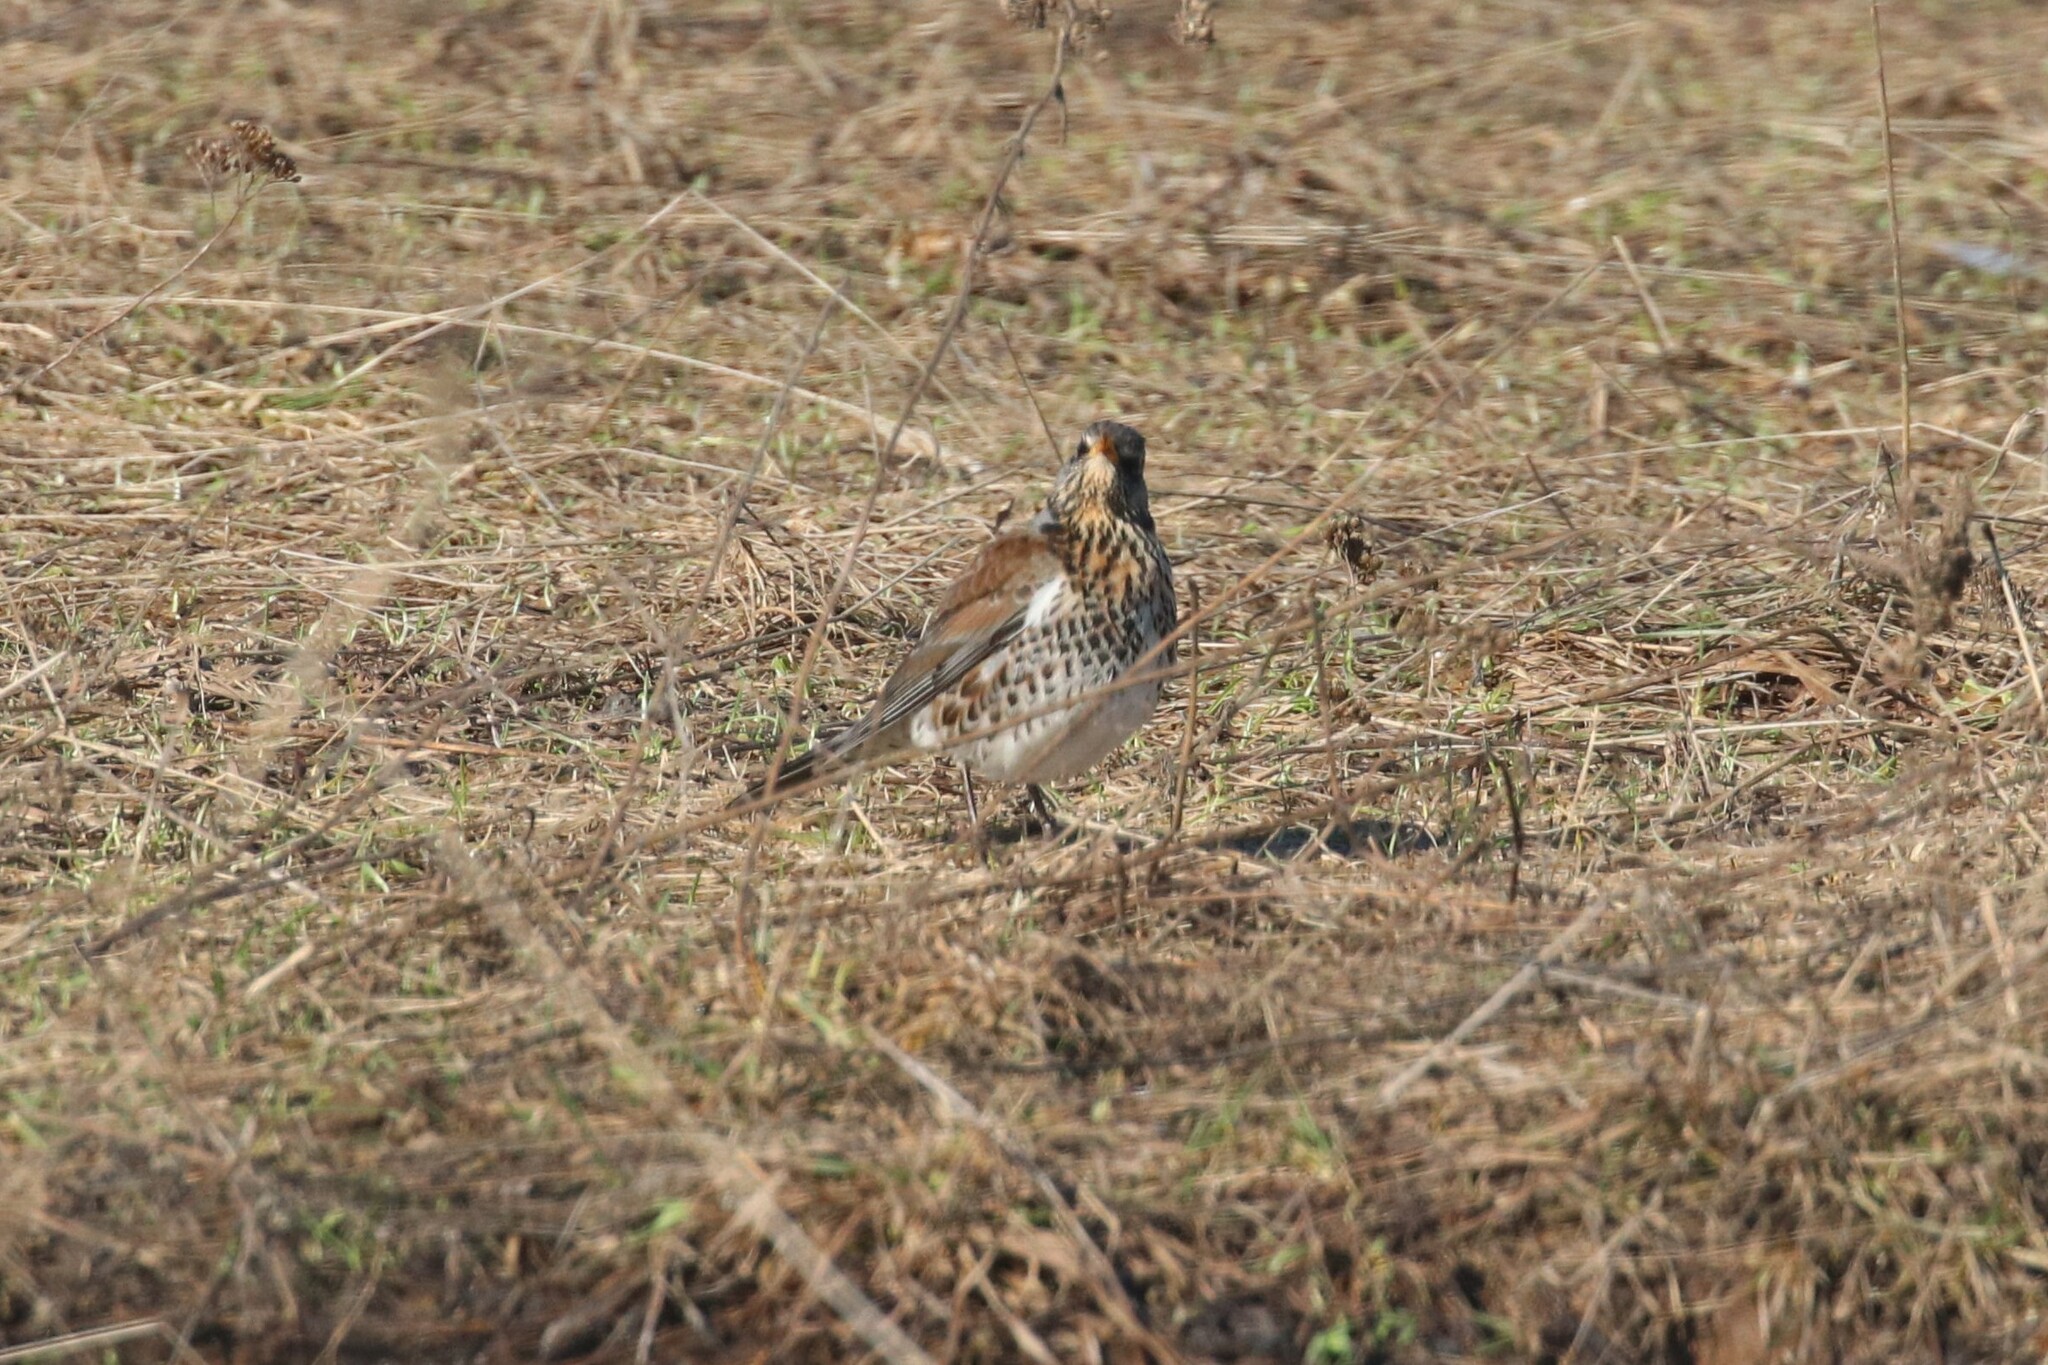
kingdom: Animalia
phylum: Chordata
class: Aves
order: Passeriformes
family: Turdidae
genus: Turdus
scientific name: Turdus pilaris
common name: Fieldfare
